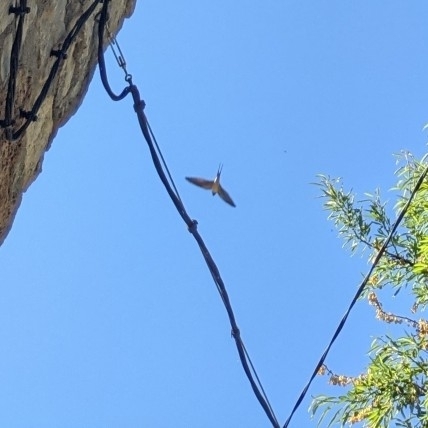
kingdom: Animalia
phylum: Chordata
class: Aves
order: Passeriformes
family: Hirundinidae
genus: Hirundo
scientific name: Hirundo rustica
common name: Barn swallow
